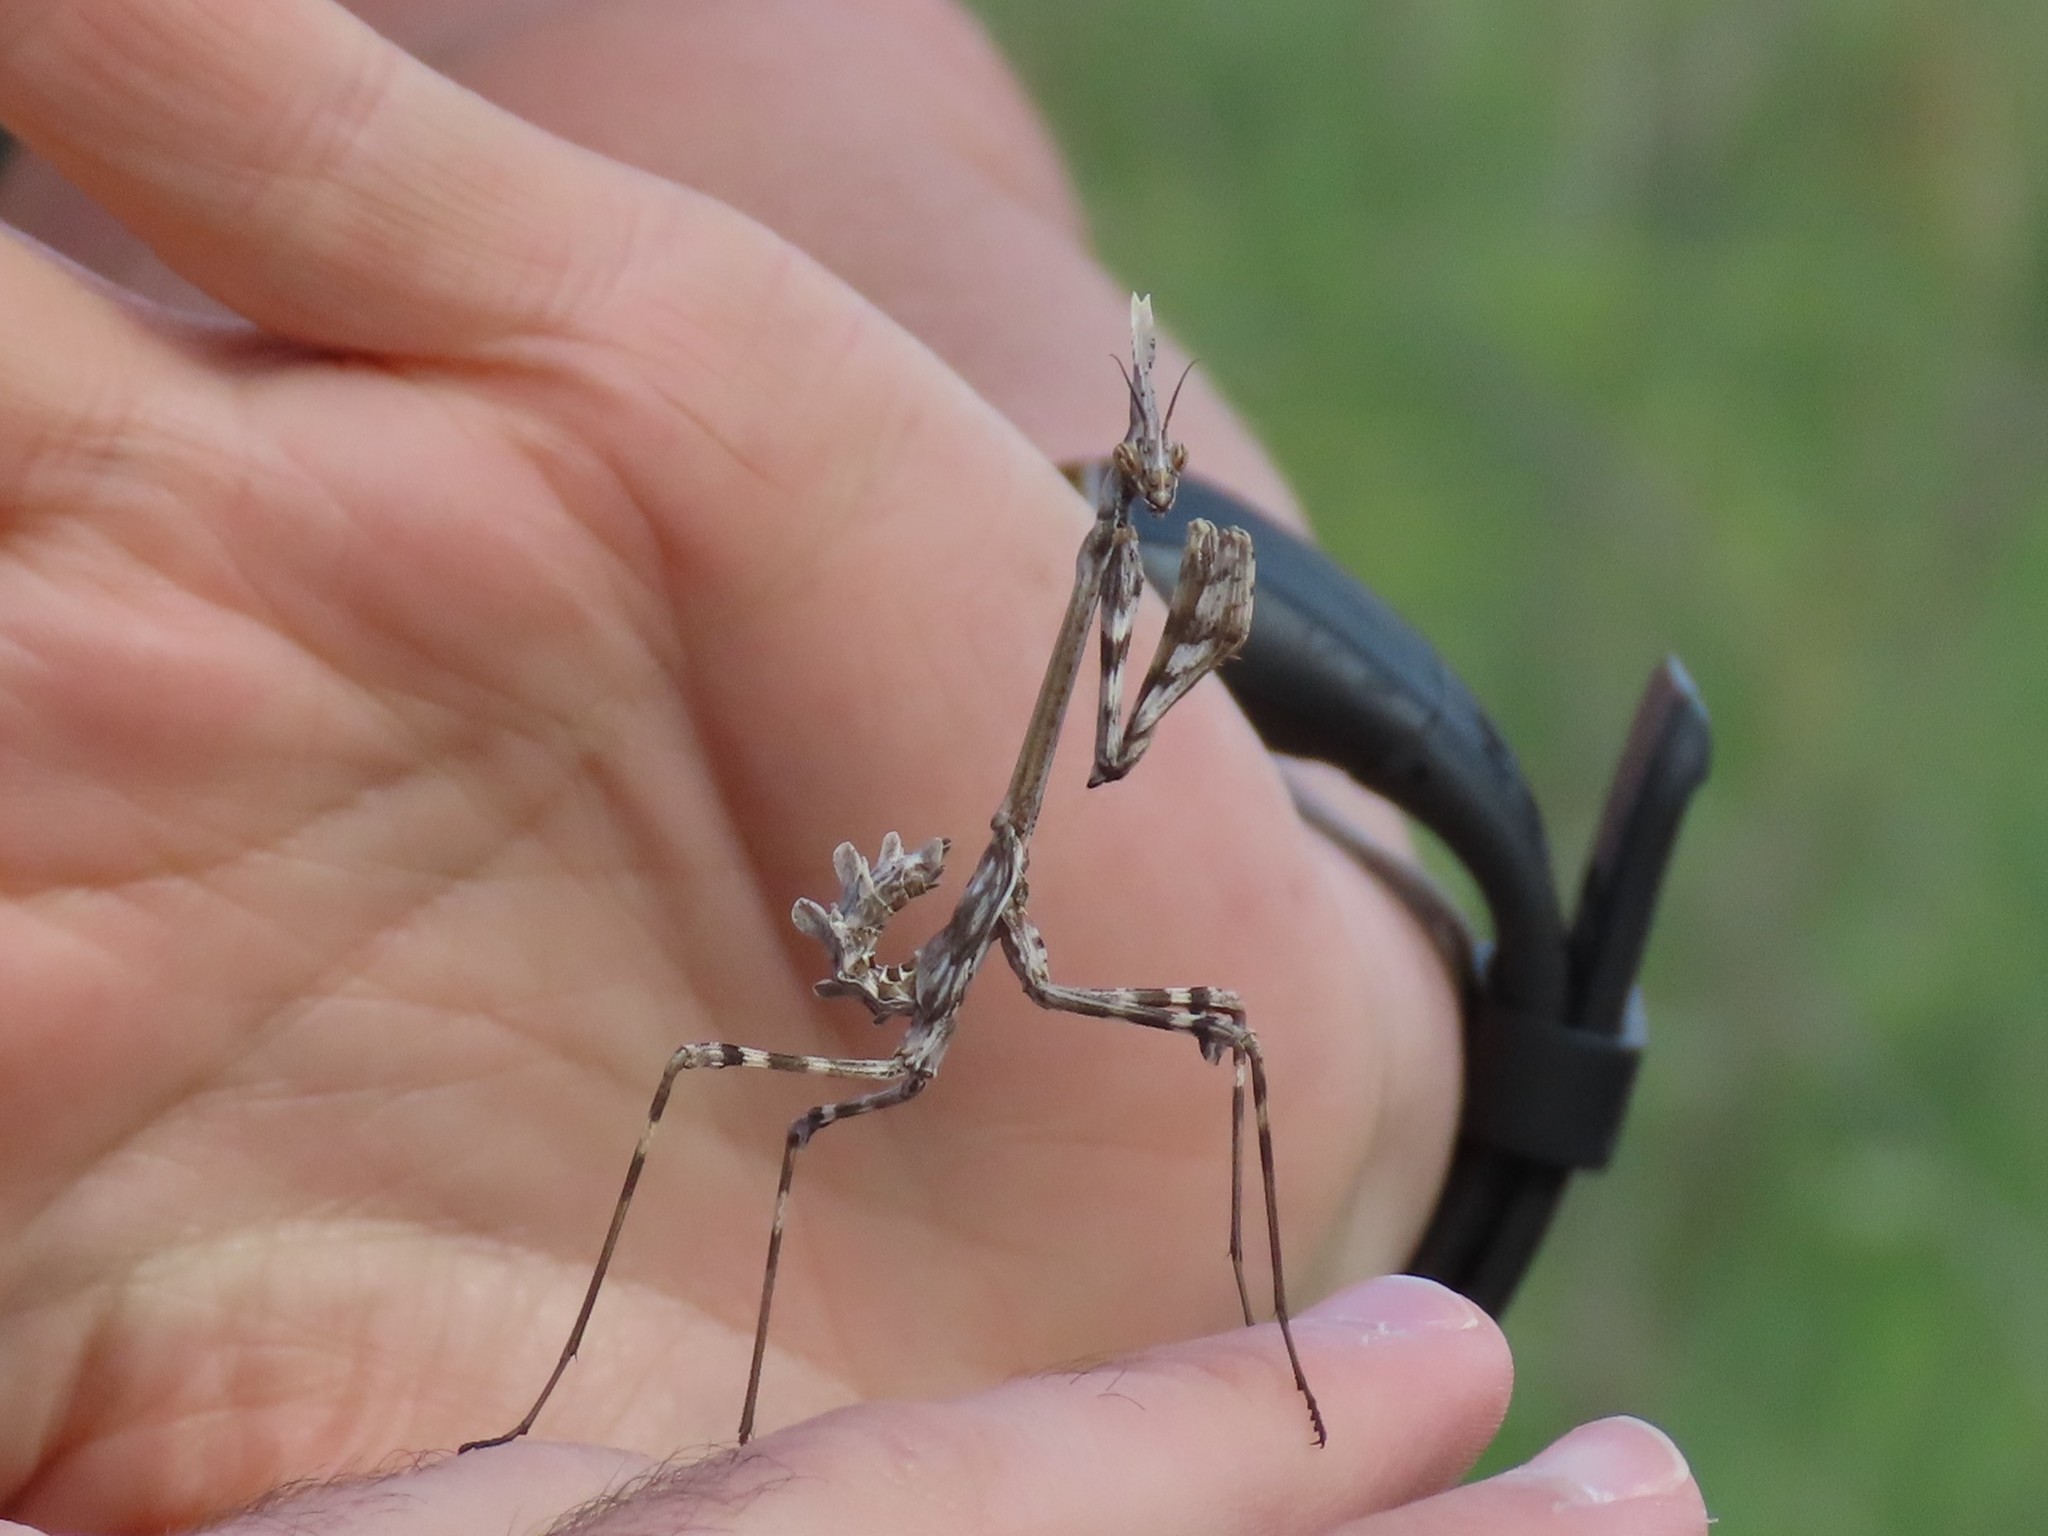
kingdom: Animalia
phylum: Arthropoda
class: Insecta
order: Mantodea
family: Empusidae
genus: Empusa
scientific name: Empusa pennata
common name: Conehead mantis
